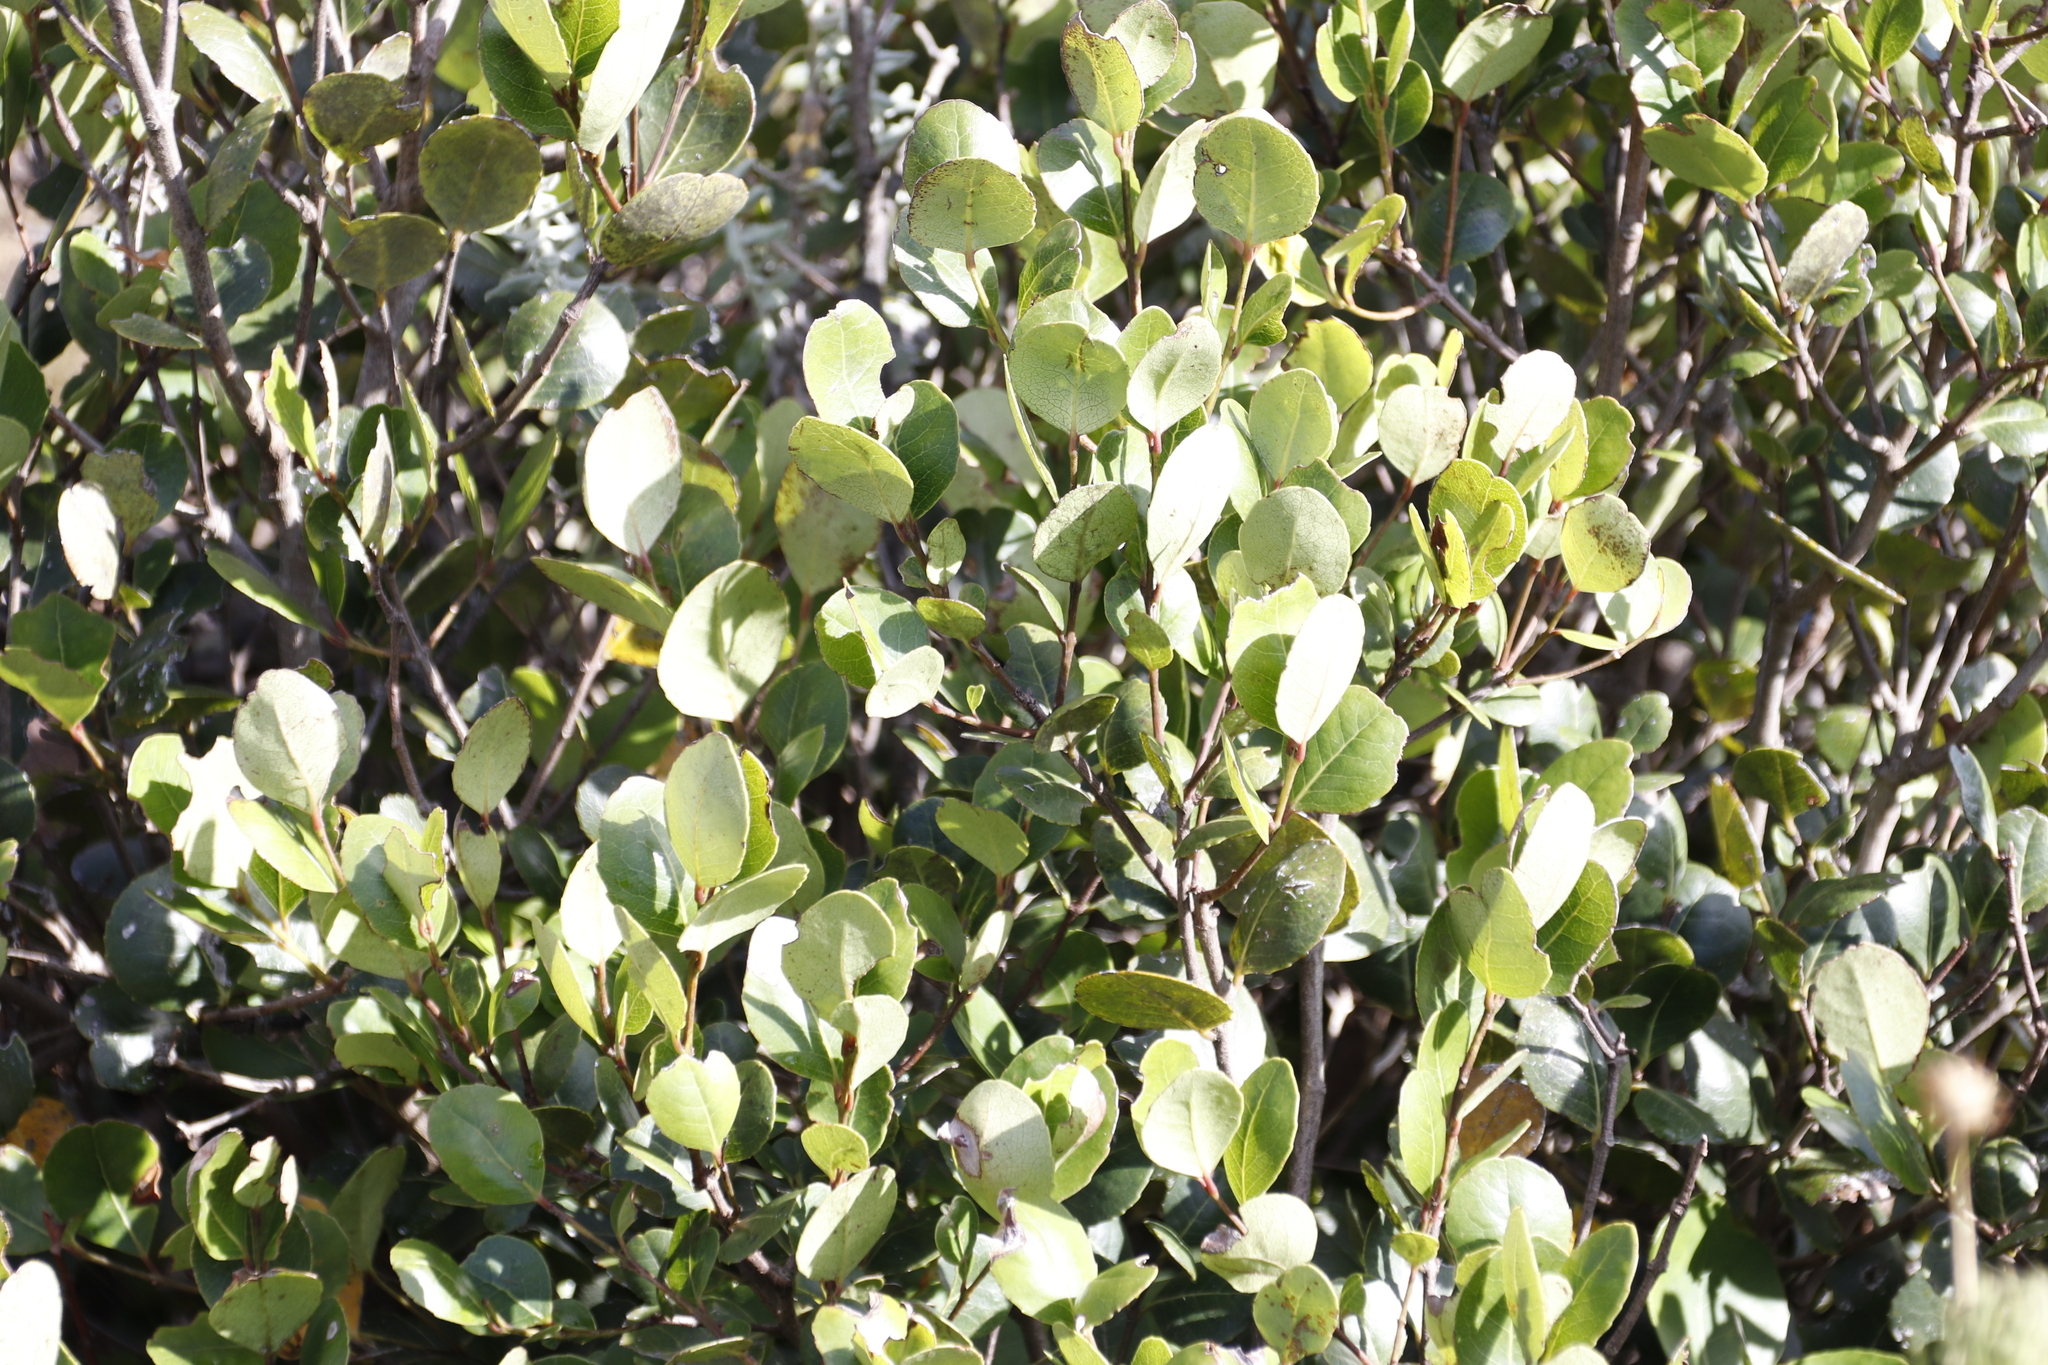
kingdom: Plantae
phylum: Tracheophyta
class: Magnoliopsida
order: Celastrales
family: Celastraceae
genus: Cassine
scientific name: Cassine peragua
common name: Cape saffron
